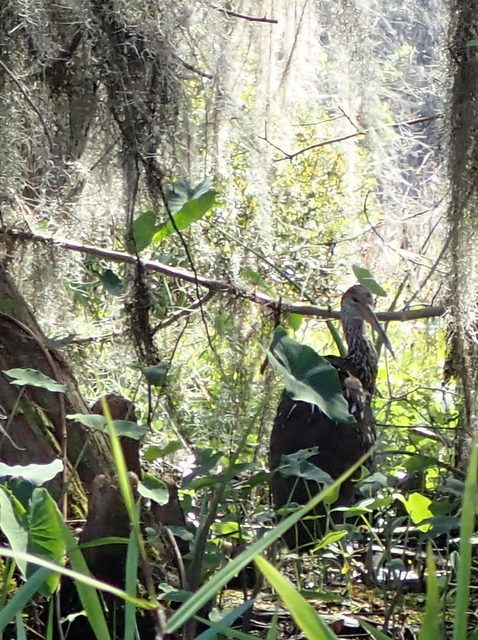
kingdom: Animalia
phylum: Chordata
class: Aves
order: Gruiformes
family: Aramidae
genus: Aramus
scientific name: Aramus guarauna
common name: Limpkin
